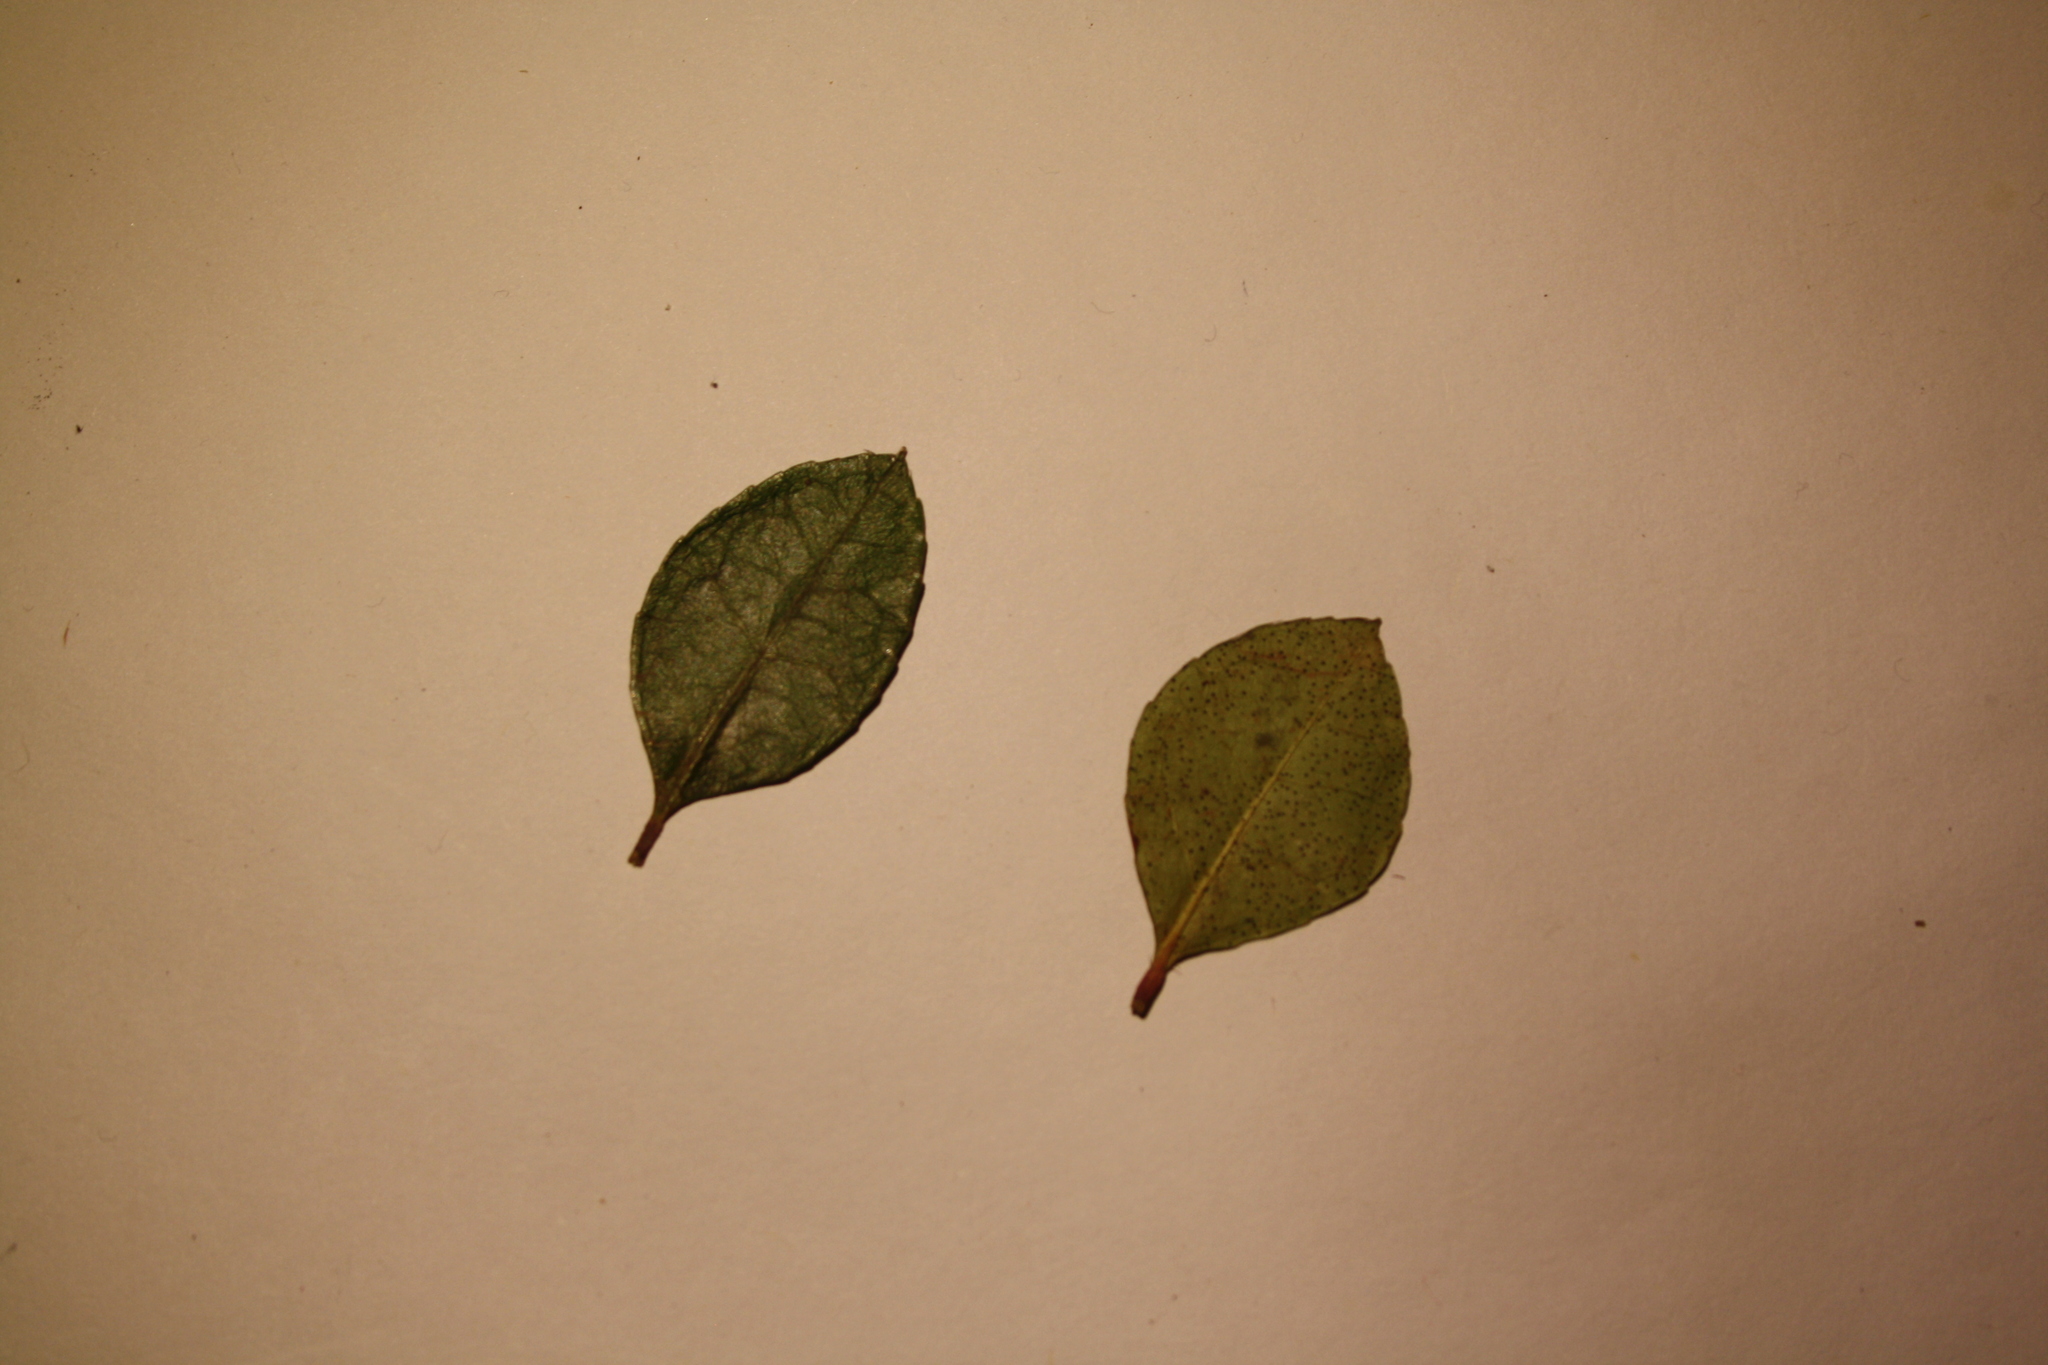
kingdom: Plantae
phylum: Tracheophyta
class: Magnoliopsida
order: Ericales
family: Ericaceae
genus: Gaultheria
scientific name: Gaultheria procumbens
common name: Checkerberry
